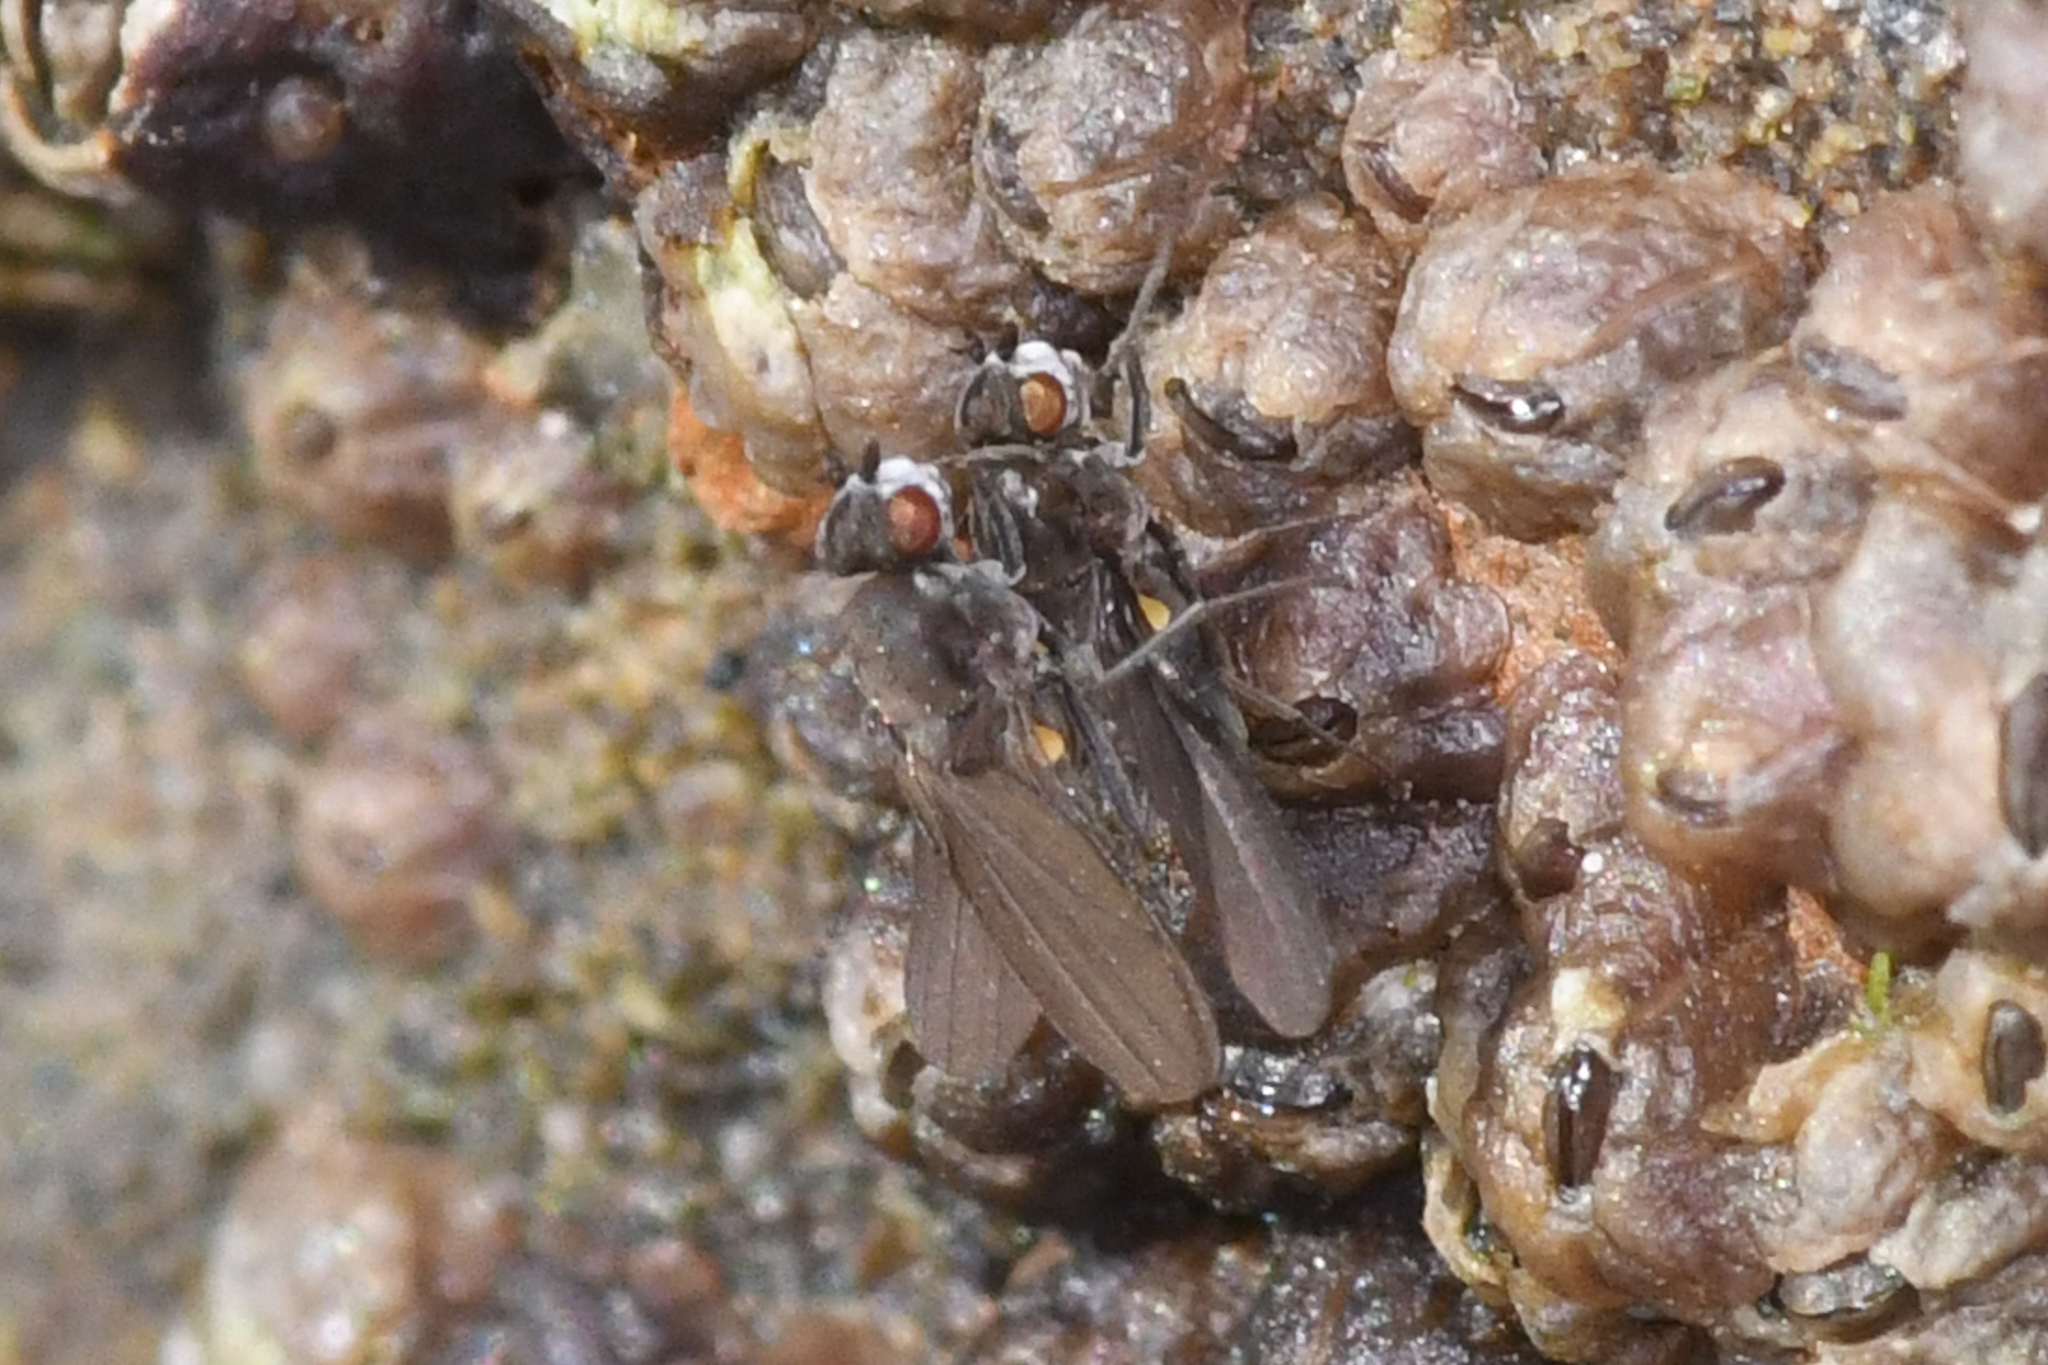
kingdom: Animalia
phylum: Arthropoda
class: Insecta
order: Diptera
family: Canacidae
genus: Canaceoides
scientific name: Canaceoides nudatus
